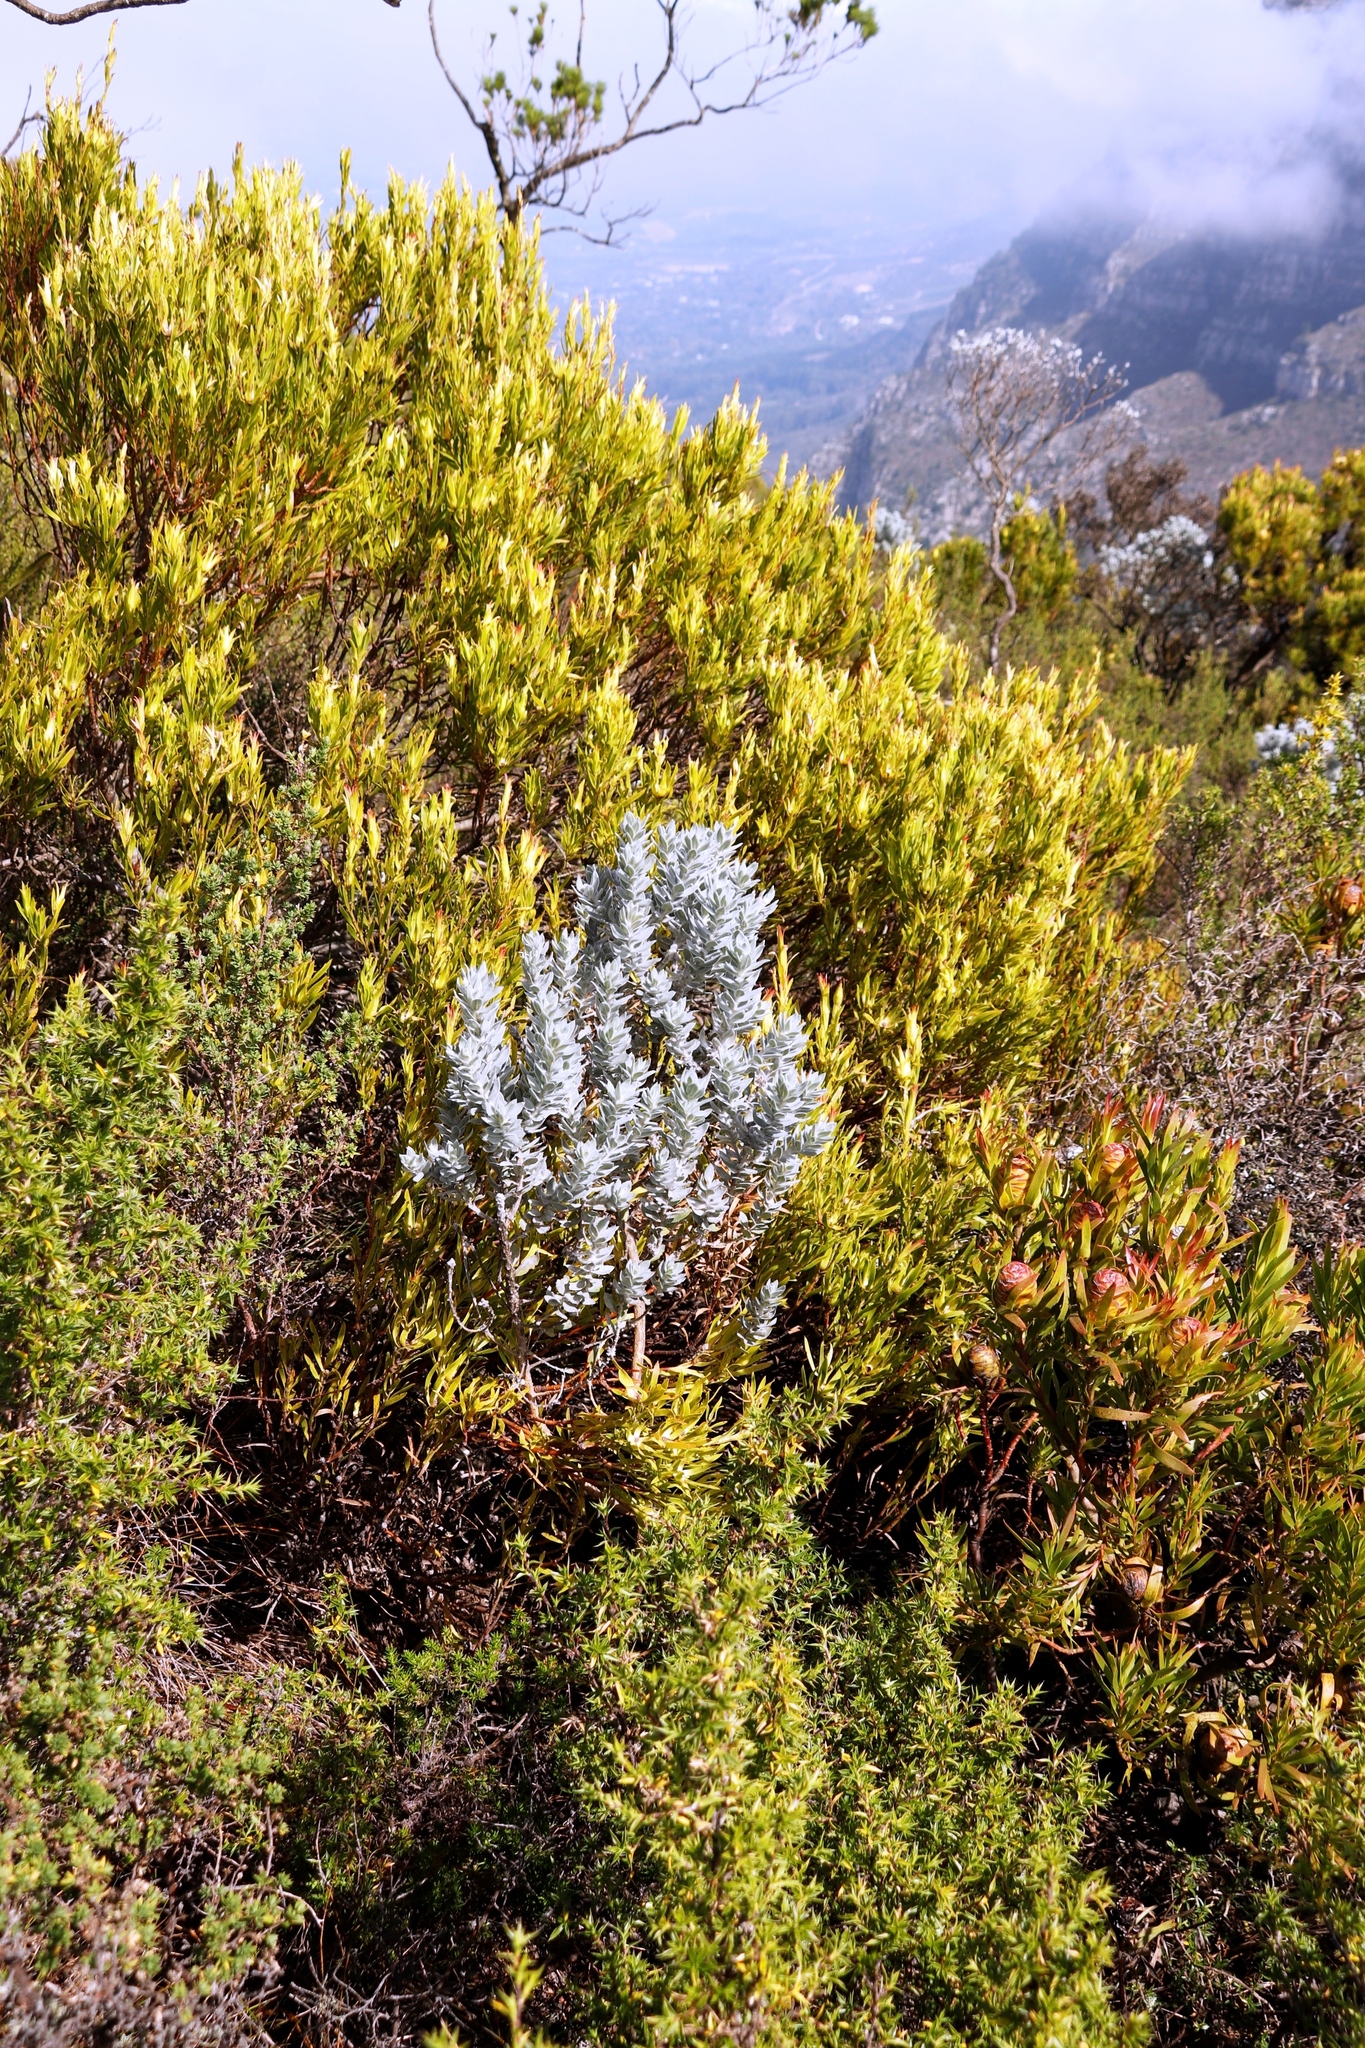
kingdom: Plantae
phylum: Tracheophyta
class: Magnoliopsida
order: Proteales
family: Proteaceae
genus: Leucadendron
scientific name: Leucadendron xanthoconus
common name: Sickle-leaf conebush
